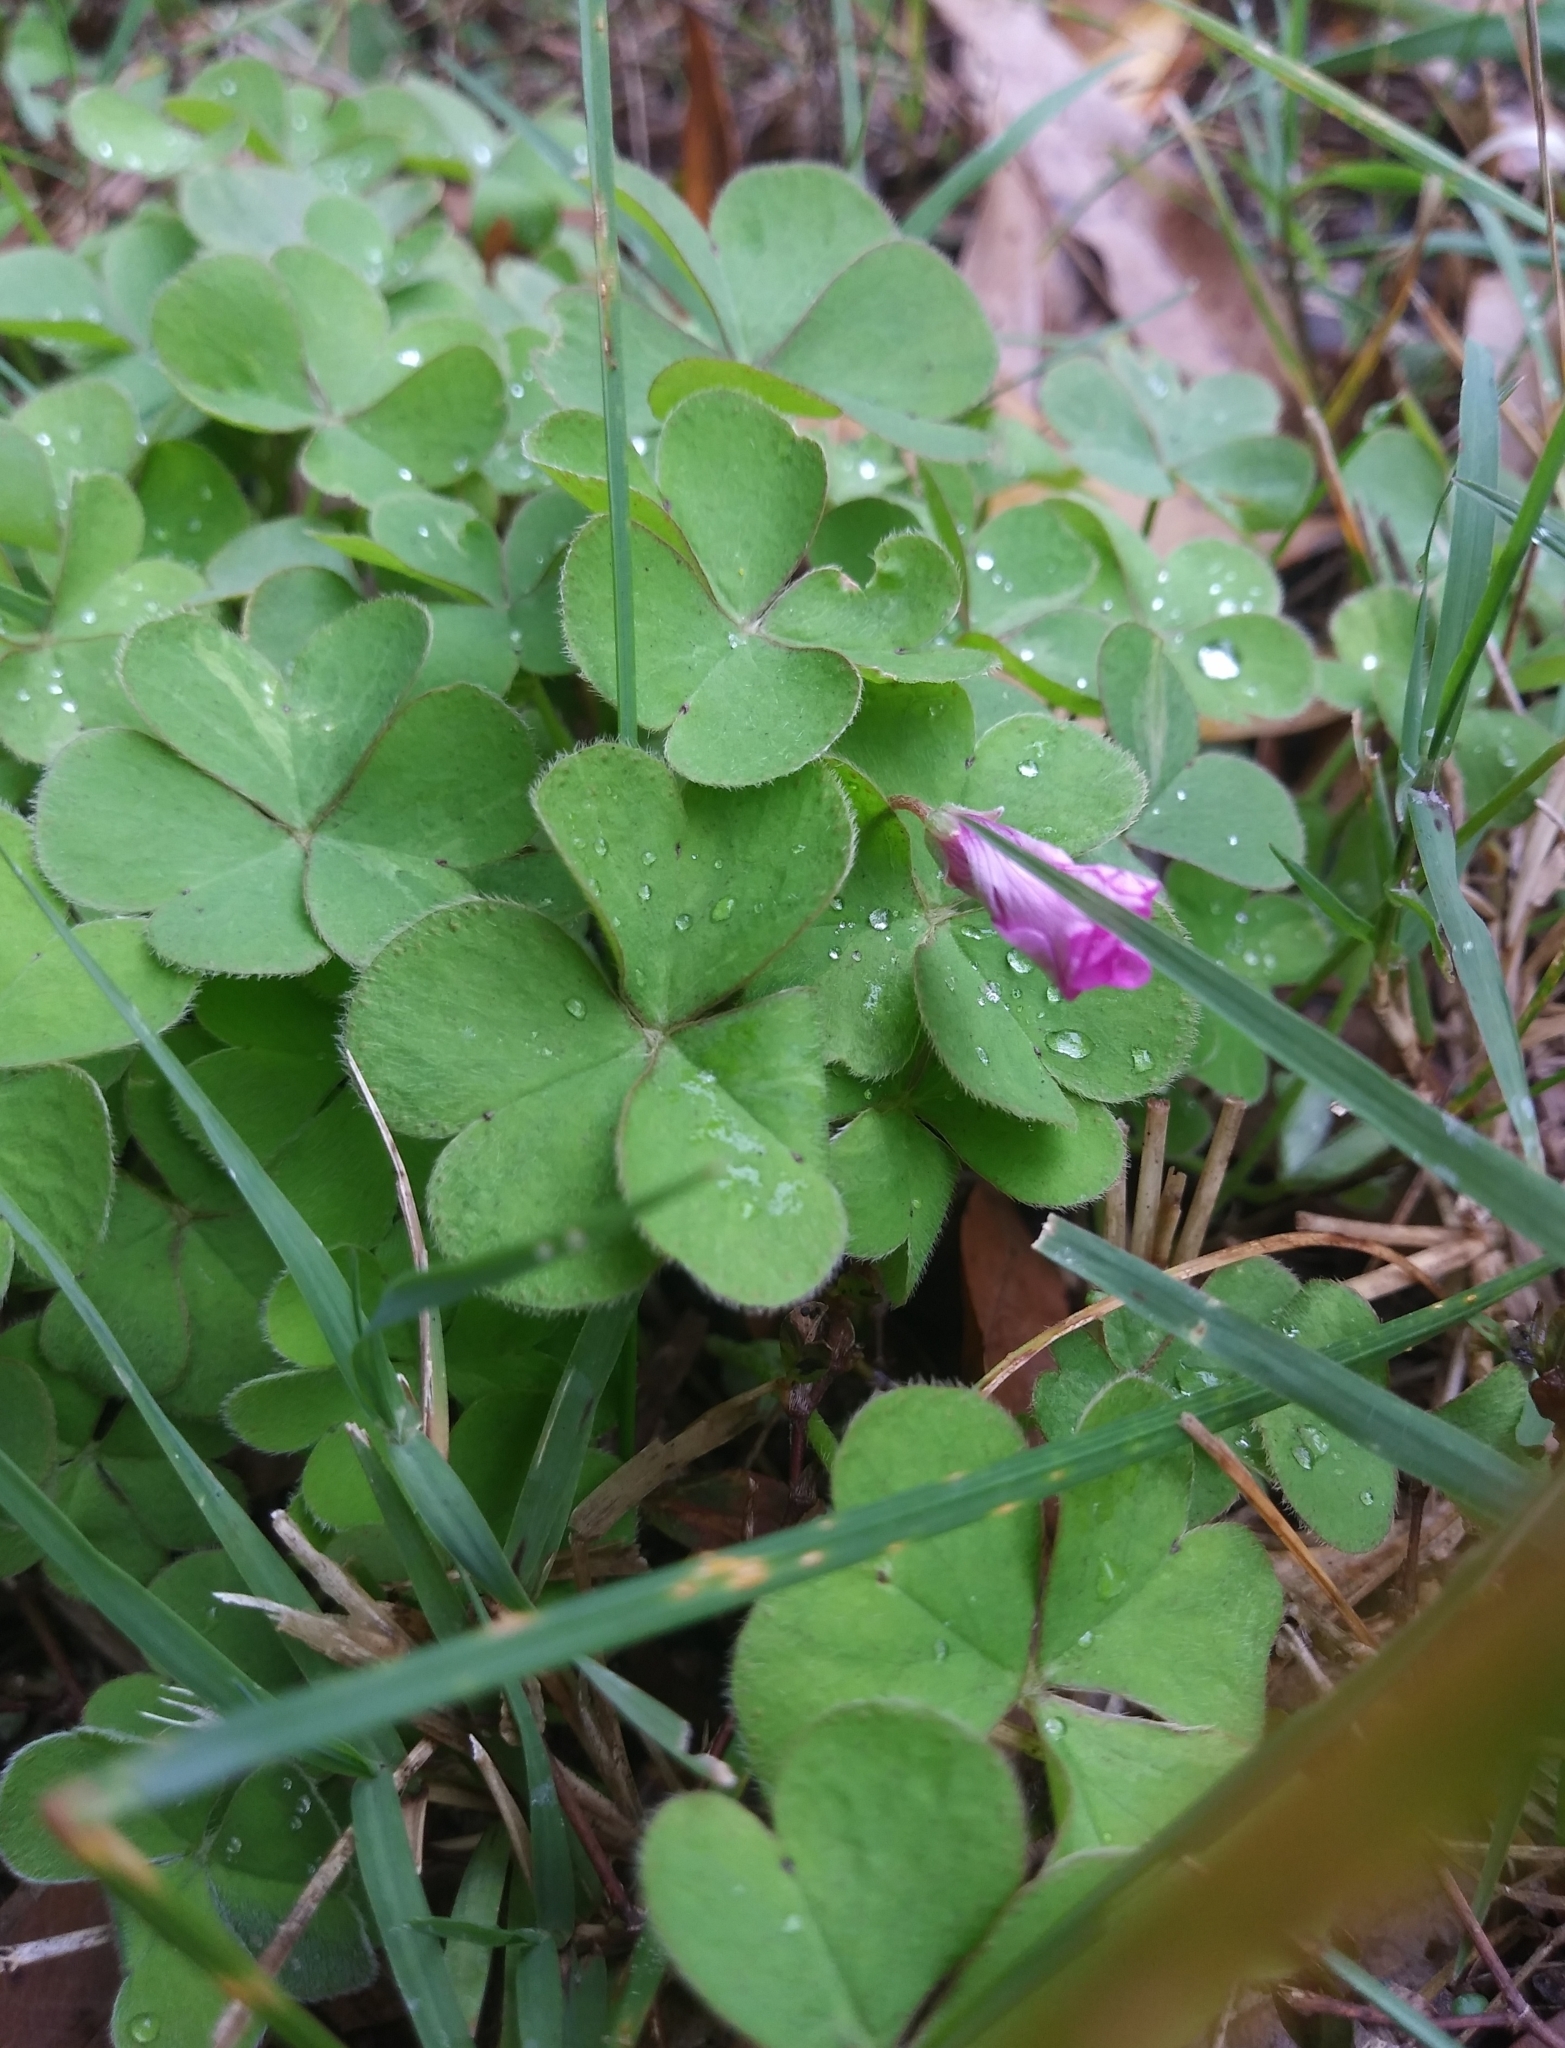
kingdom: Plantae
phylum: Tracheophyta
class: Magnoliopsida
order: Oxalidales
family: Oxalidaceae
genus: Oxalis
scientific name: Oxalis articulata
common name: Pink-sorrel
